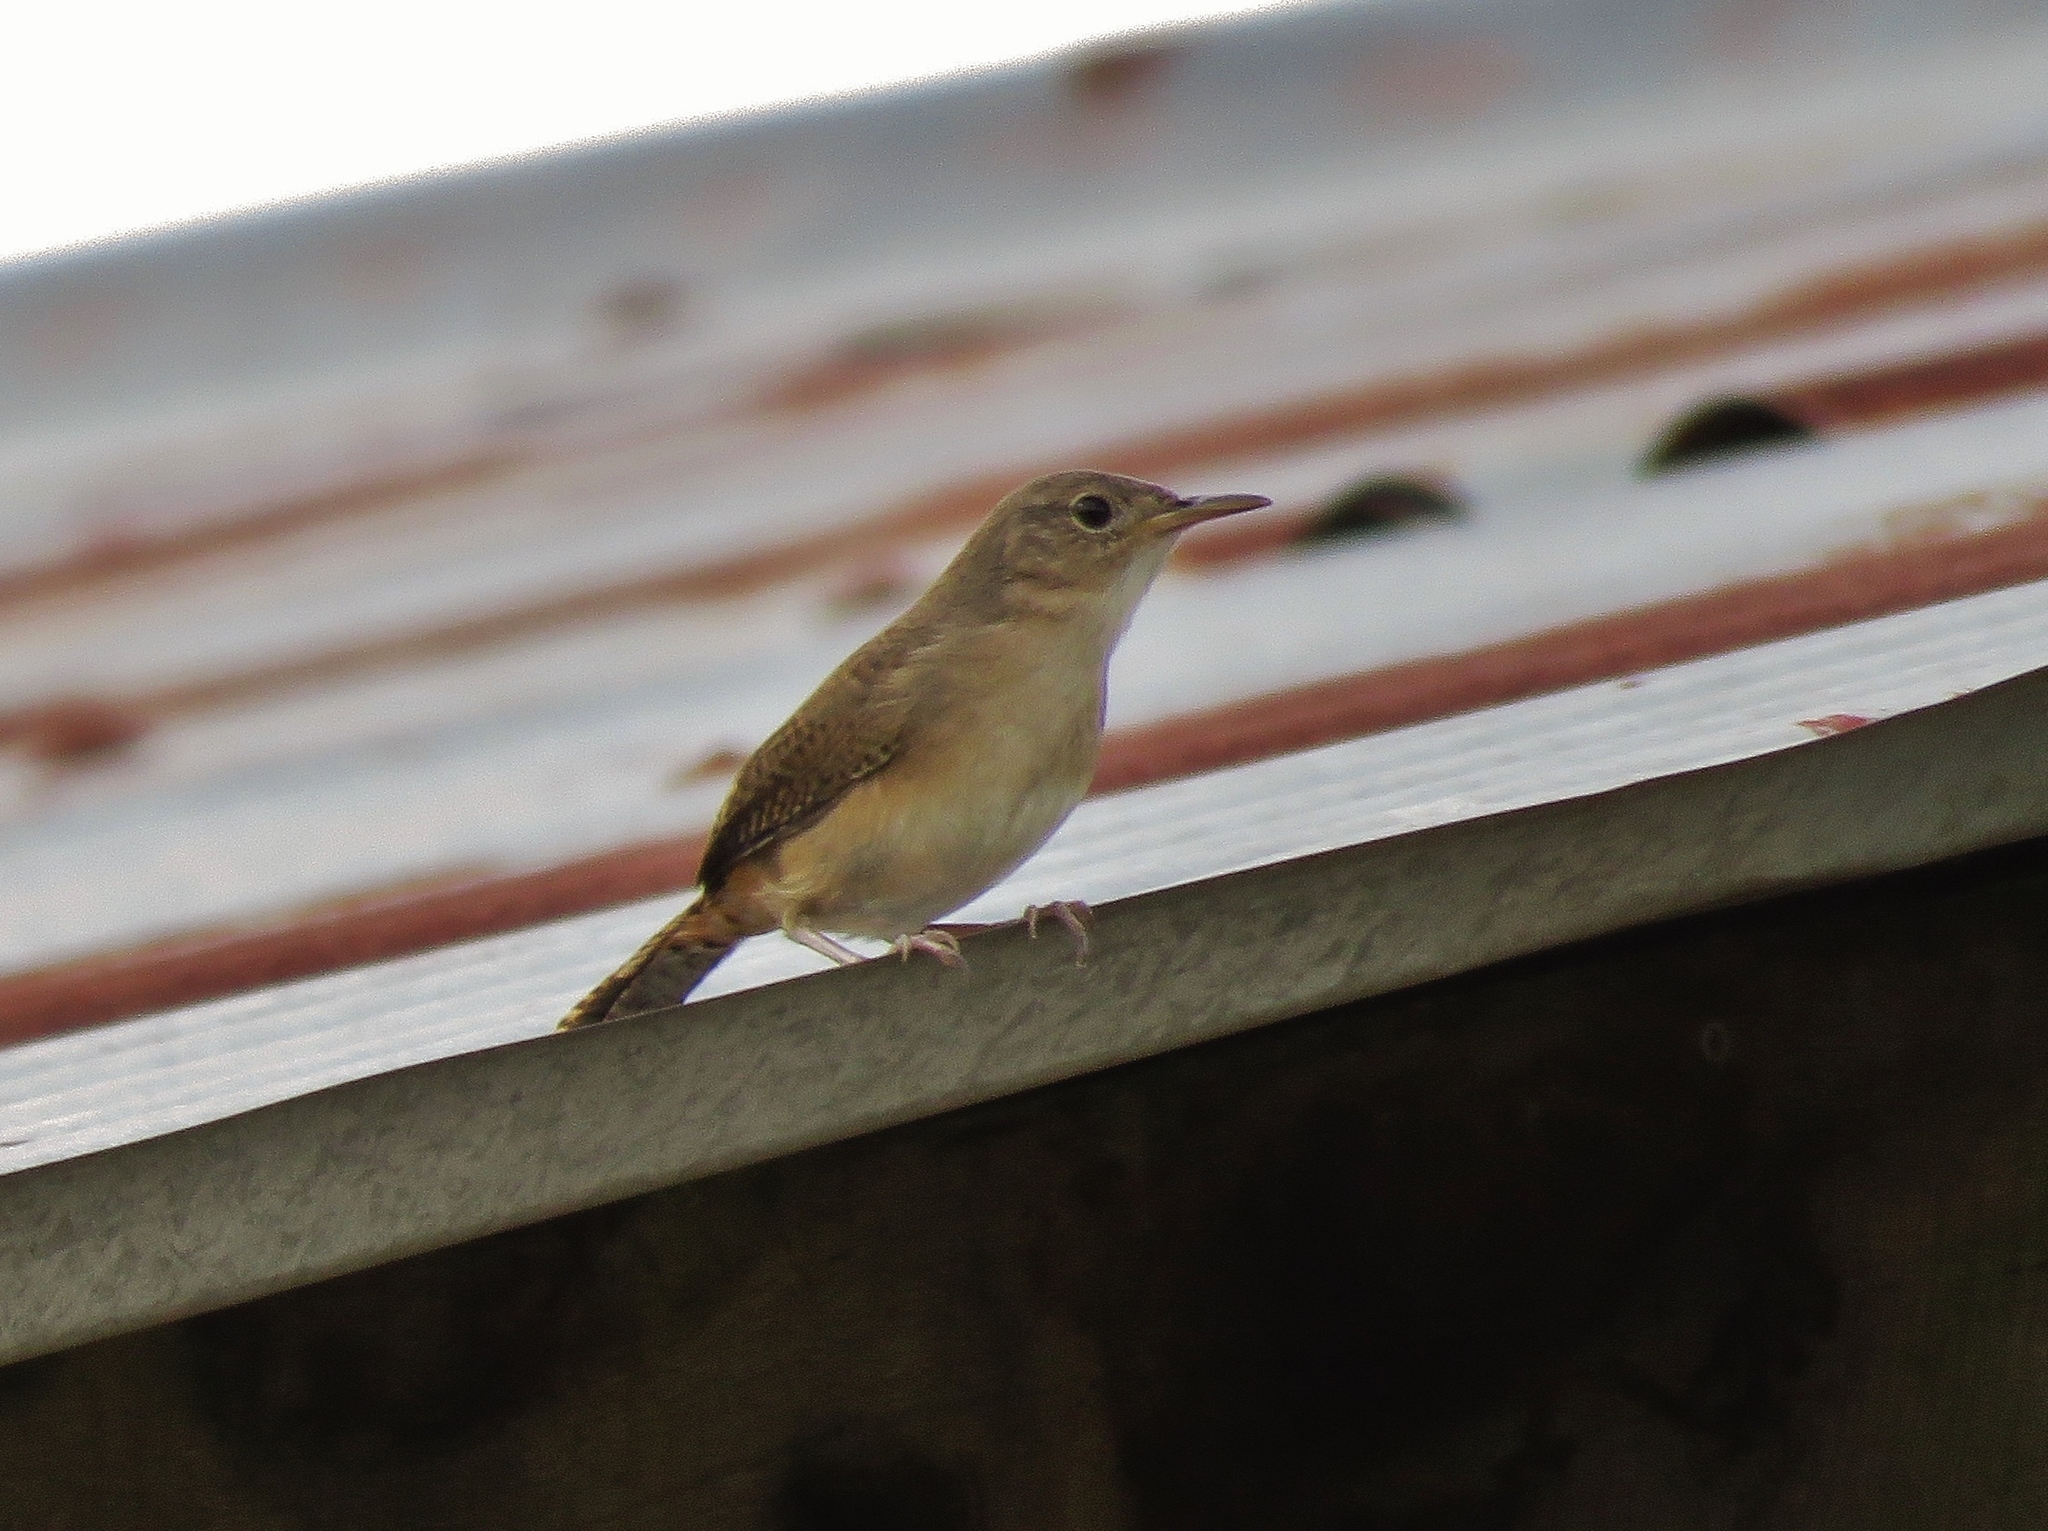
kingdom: Animalia
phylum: Chordata
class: Aves
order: Passeriformes
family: Troglodytidae
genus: Troglodytes
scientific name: Troglodytes aedon
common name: House wren
